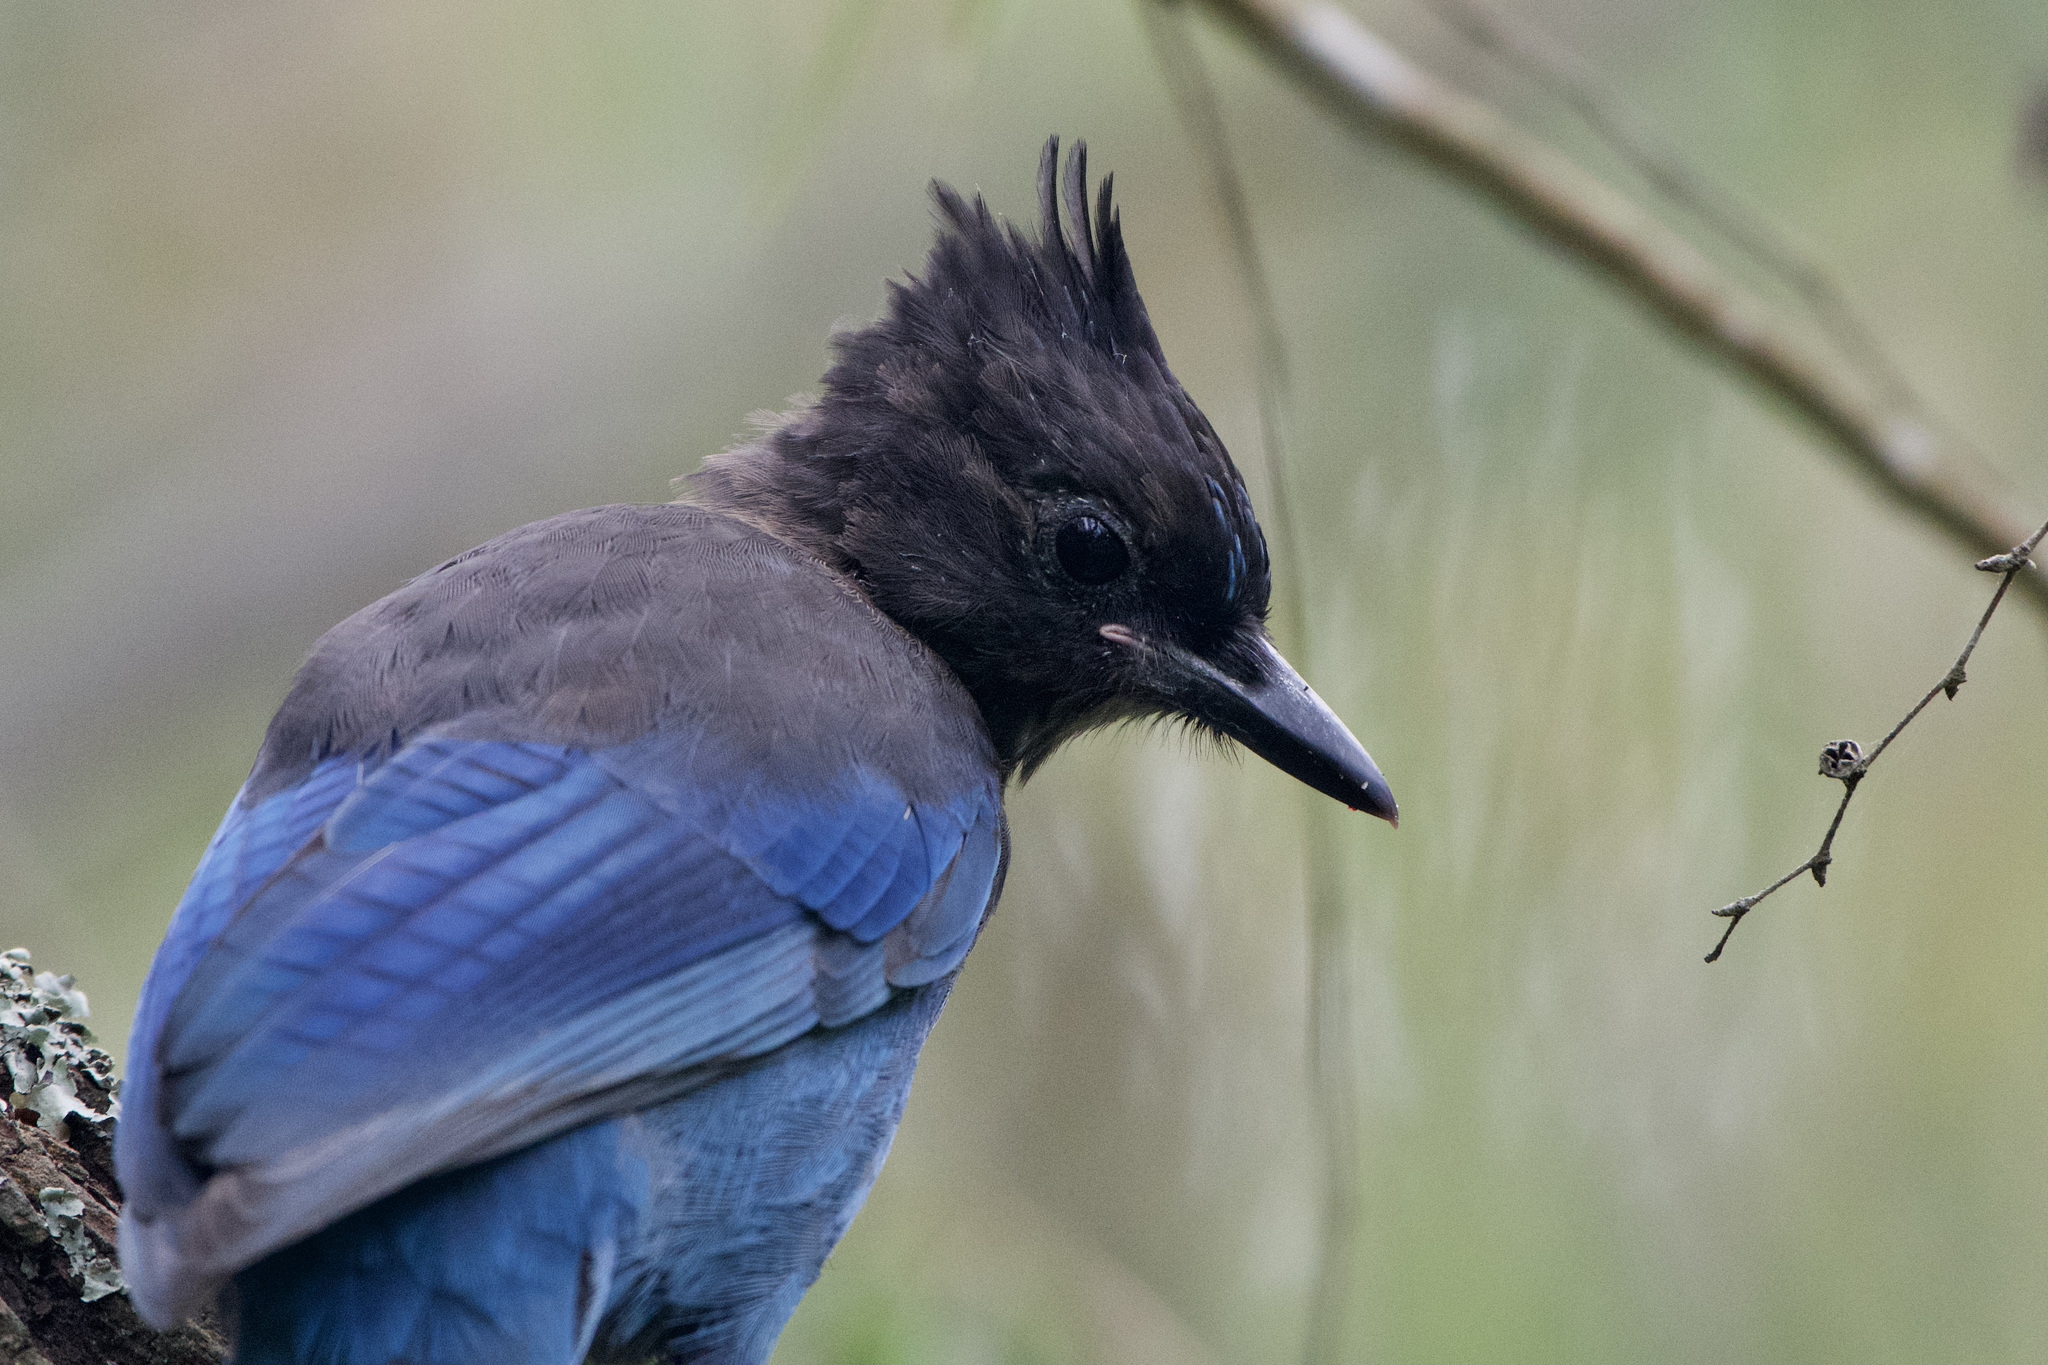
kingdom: Animalia
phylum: Chordata
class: Aves
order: Passeriformes
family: Corvidae
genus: Cyanocitta
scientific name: Cyanocitta stelleri
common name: Steller's jay
